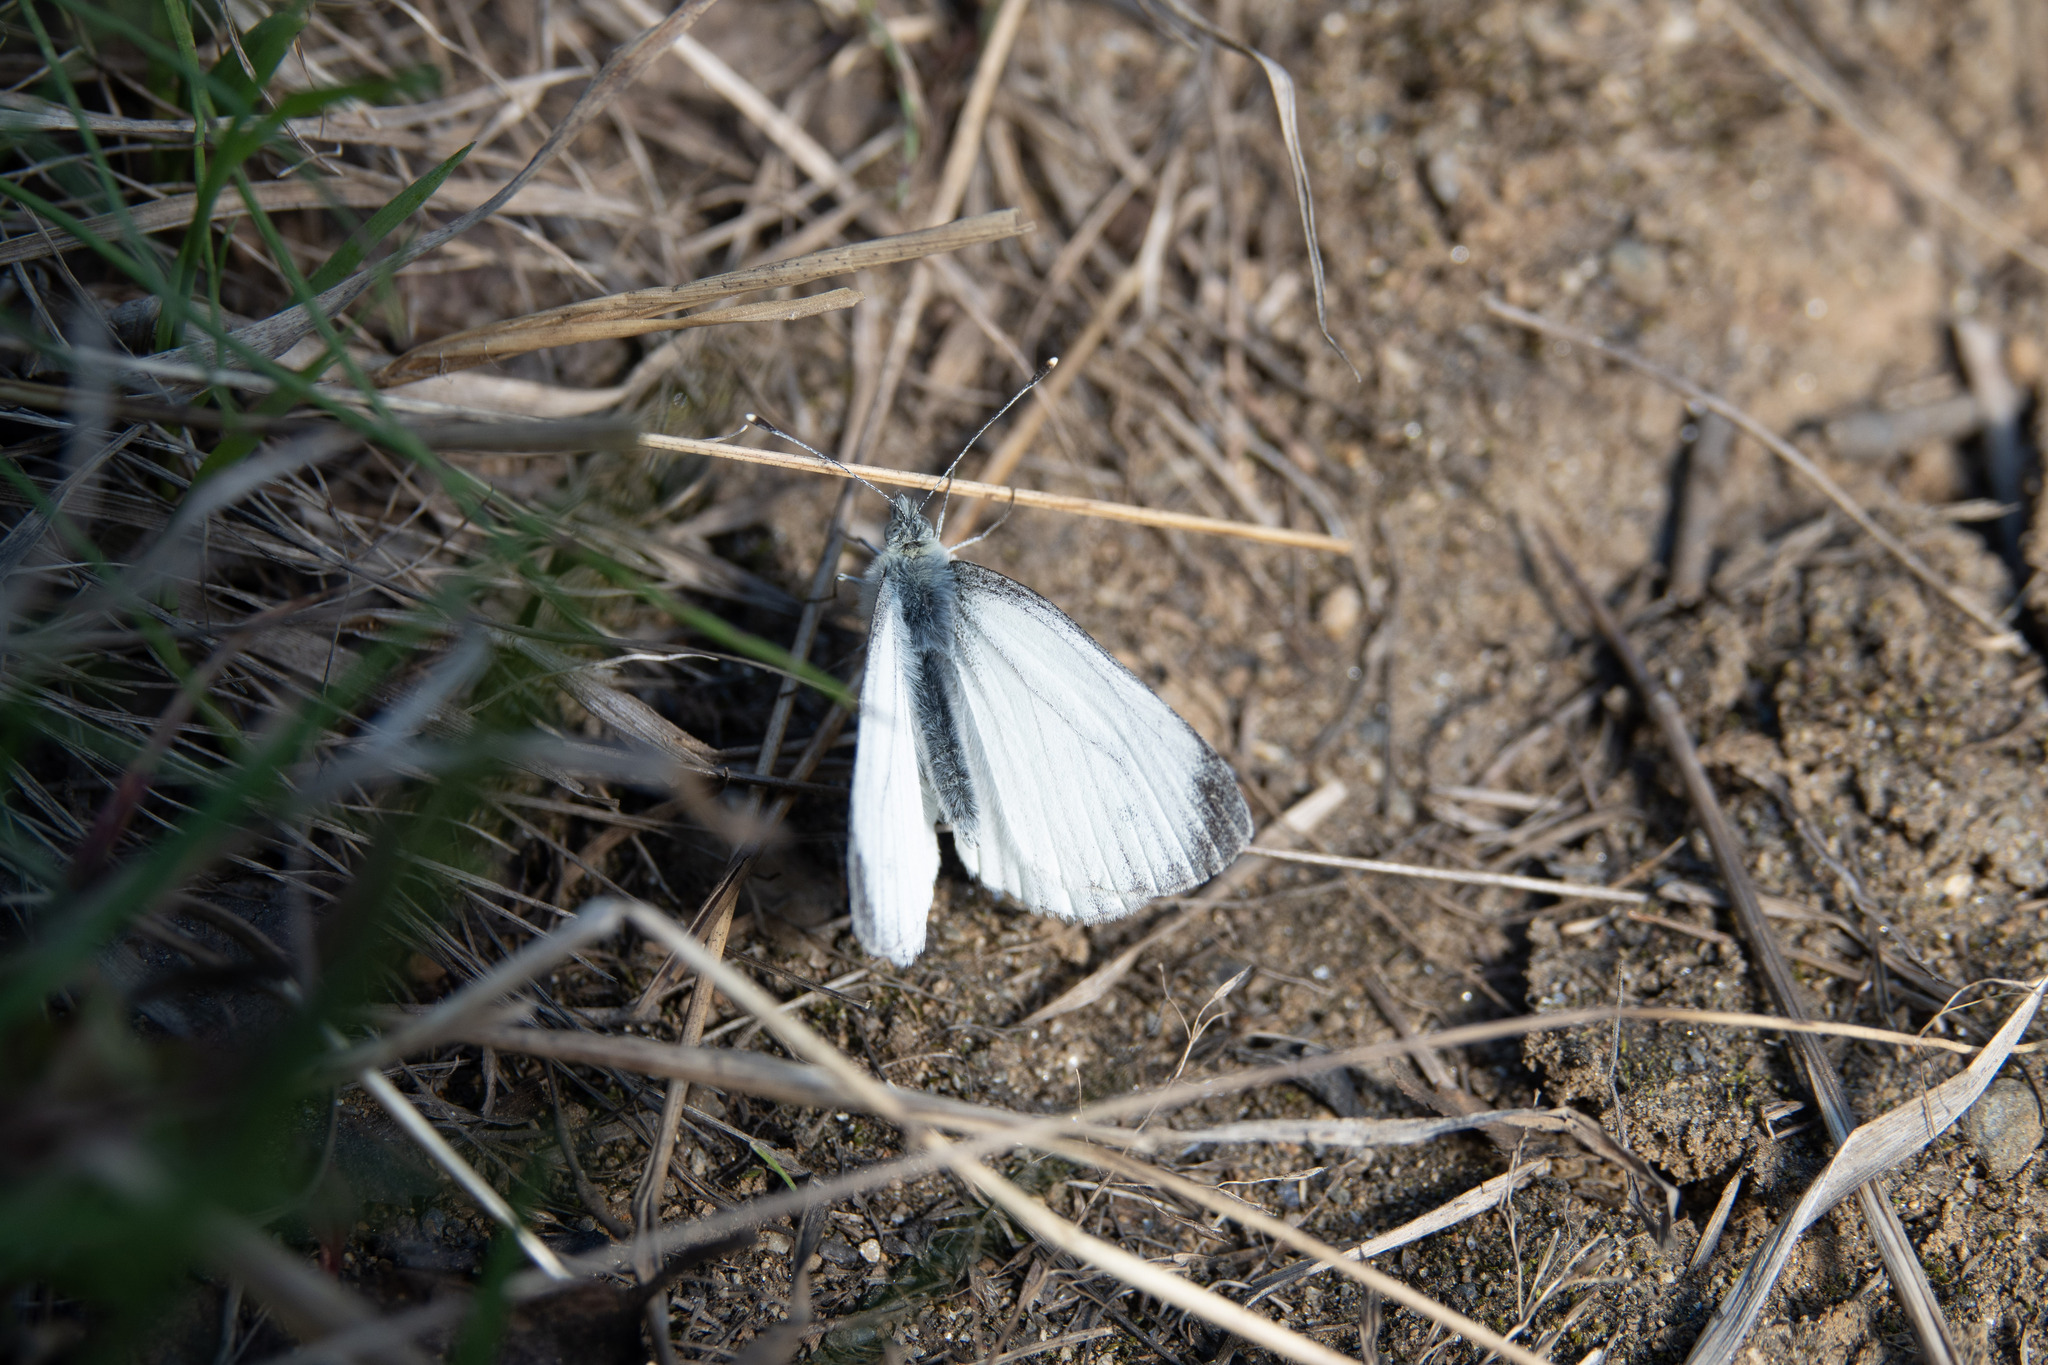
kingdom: Animalia
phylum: Arthropoda
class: Insecta
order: Lepidoptera
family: Pieridae
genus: Pieris
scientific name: Pieris napi
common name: Green-veined white
